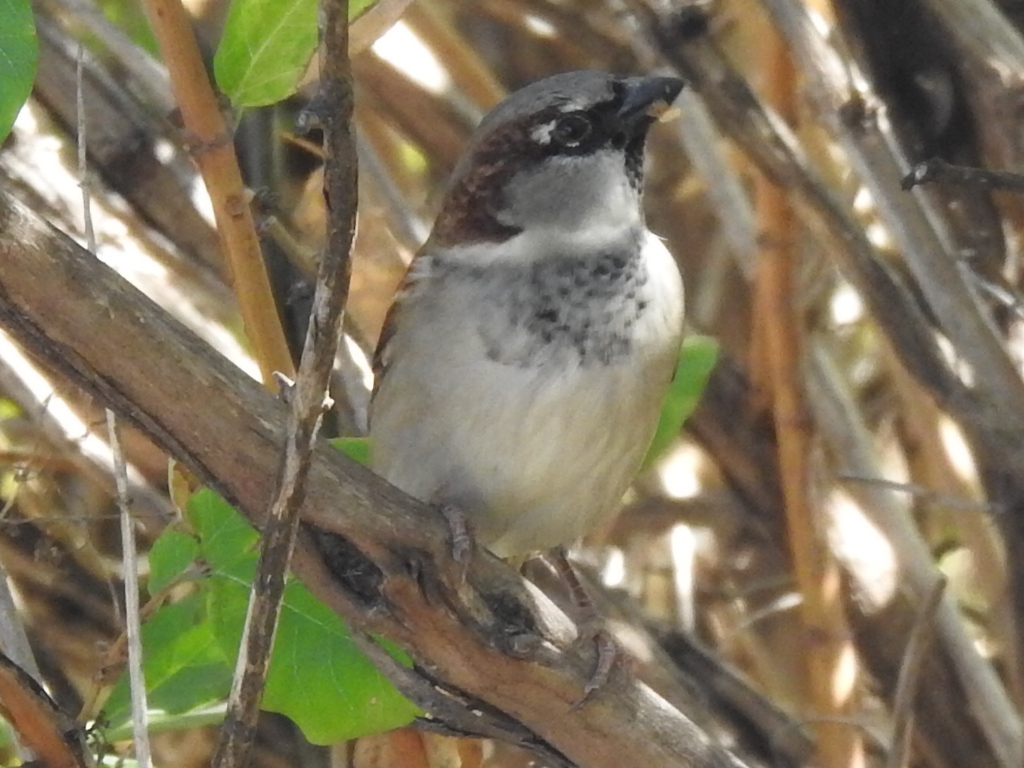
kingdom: Animalia
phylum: Chordata
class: Aves
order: Passeriformes
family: Passeridae
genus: Passer
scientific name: Passer domesticus
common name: House sparrow
